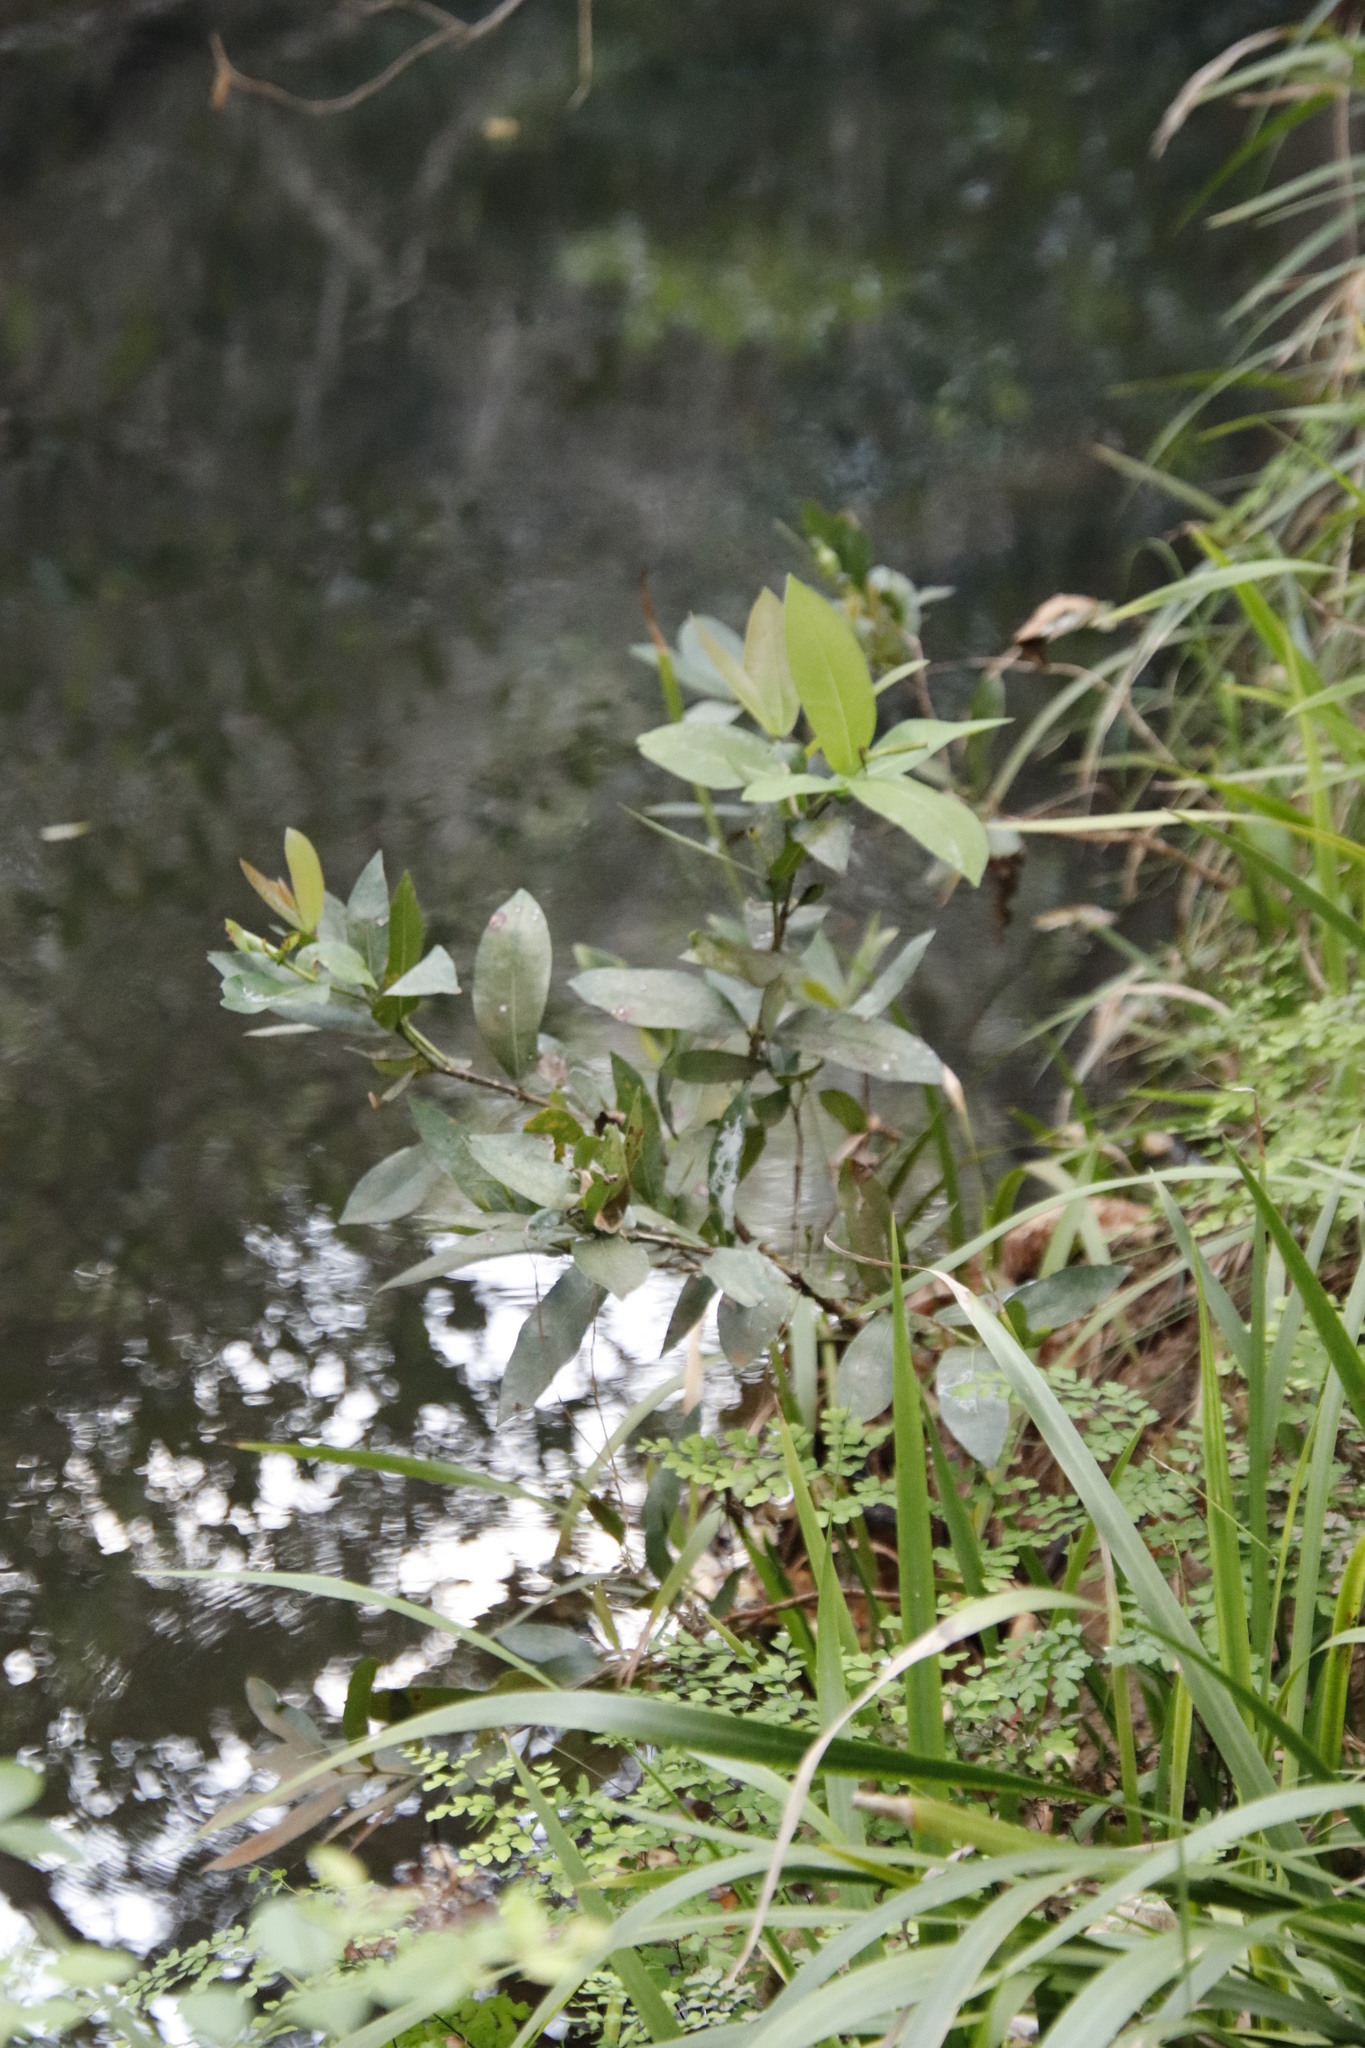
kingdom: Plantae
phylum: Tracheophyta
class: Magnoliopsida
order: Myrtales
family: Myrtaceae
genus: Syzygium
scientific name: Syzygium guineense
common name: Water-pear
